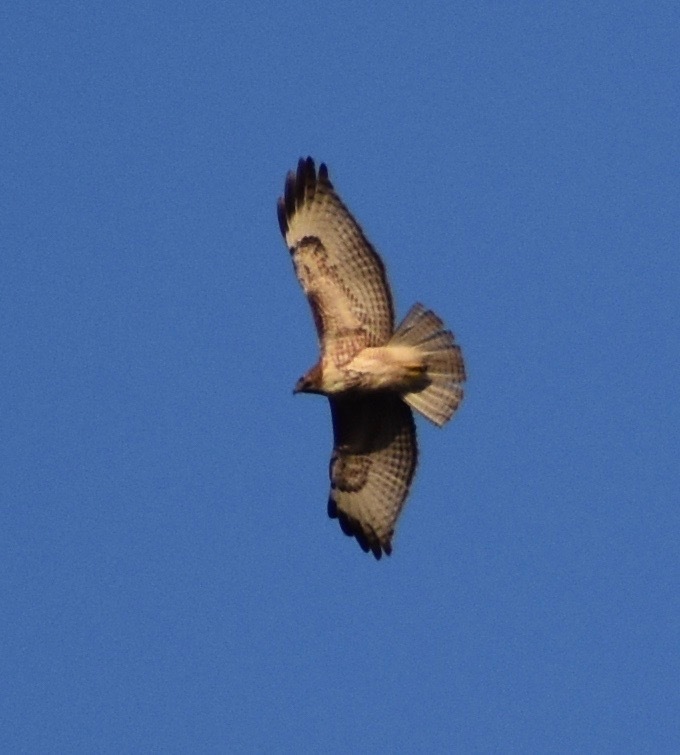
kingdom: Animalia
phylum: Chordata
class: Aves
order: Accipitriformes
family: Accipitridae
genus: Buteo
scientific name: Buteo jamaicensis
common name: Red-tailed hawk
